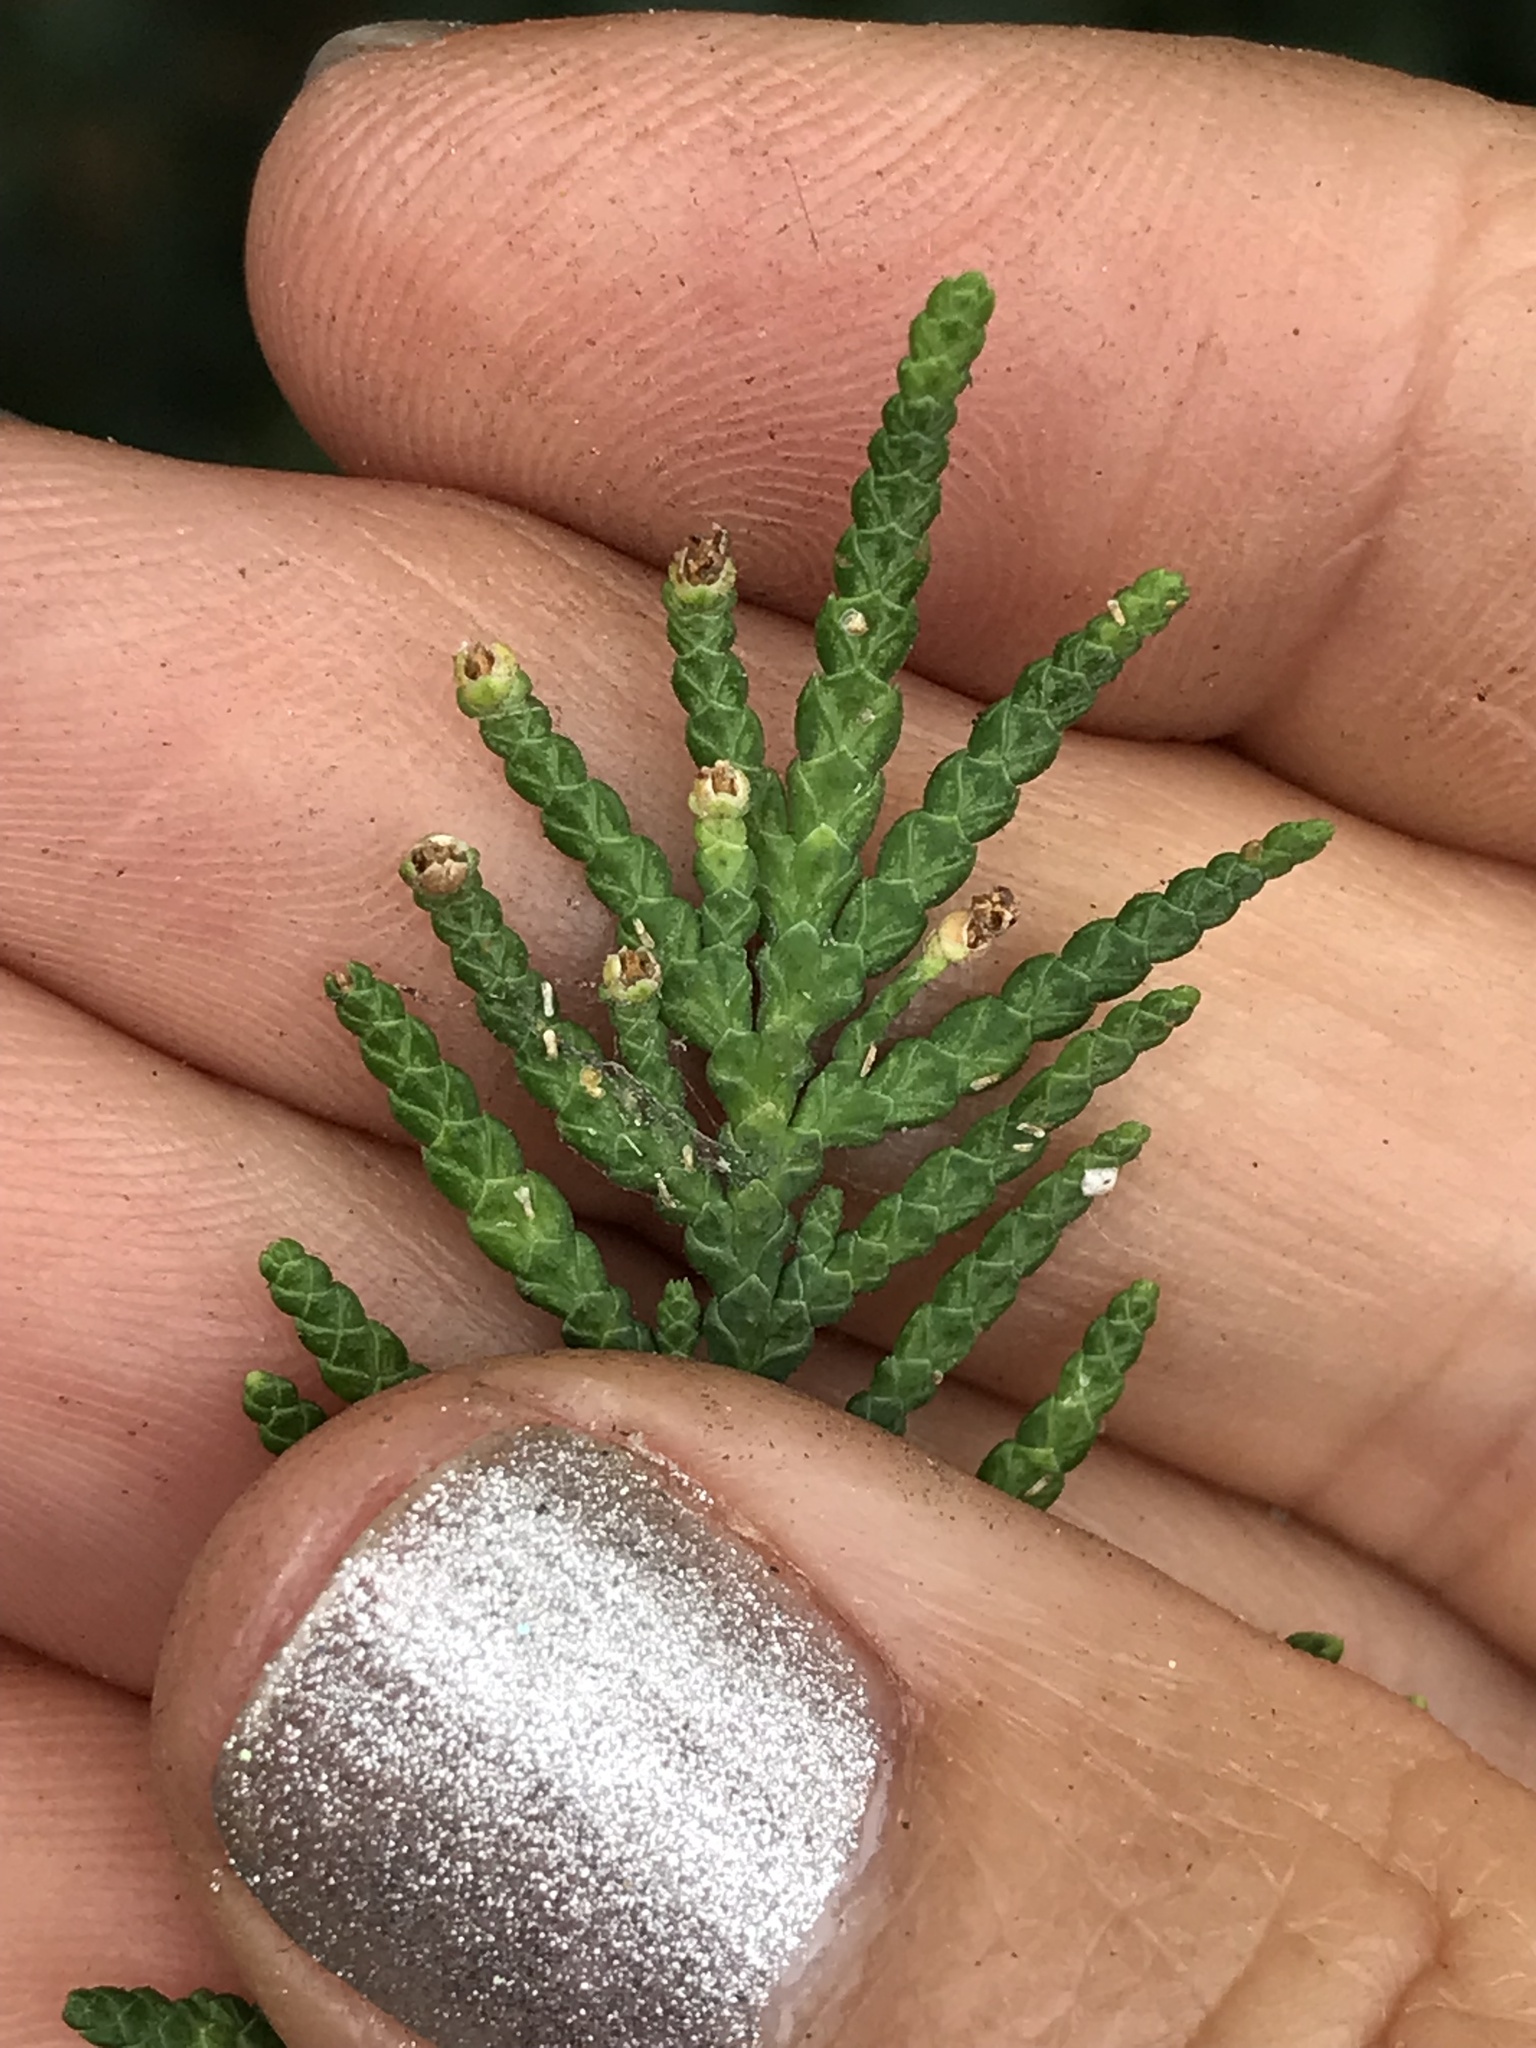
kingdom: Animalia
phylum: Arthropoda
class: Insecta
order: Diptera
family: Cecidomyiidae
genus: Oligotrophus
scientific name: Oligotrophus betheli
